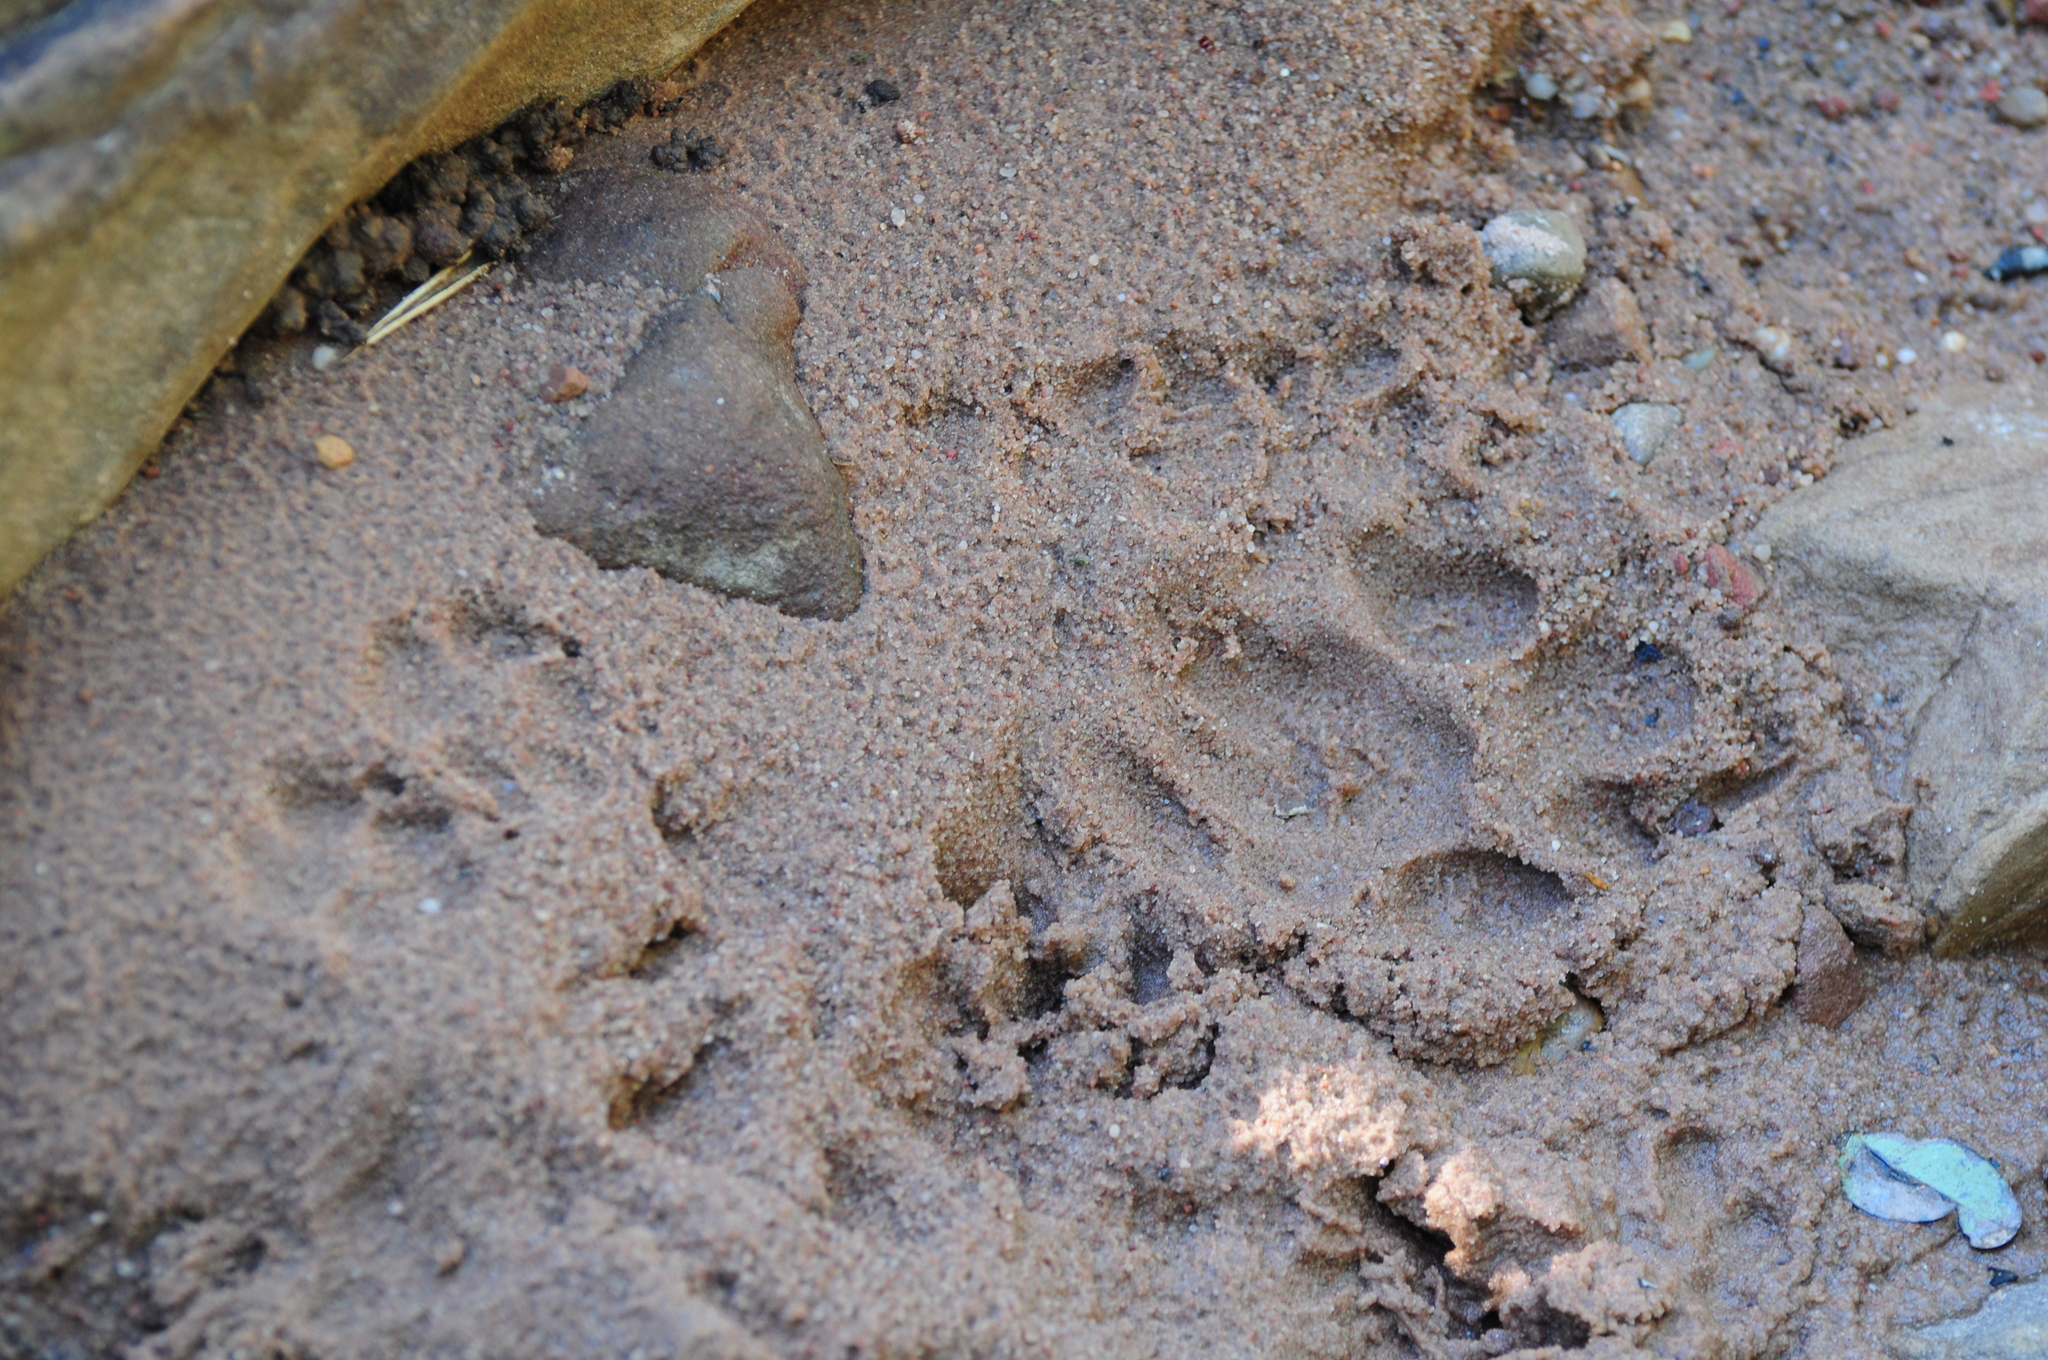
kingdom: Animalia
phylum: Chordata
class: Mammalia
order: Carnivora
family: Felidae
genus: Puma
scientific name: Puma concolor
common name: Puma
